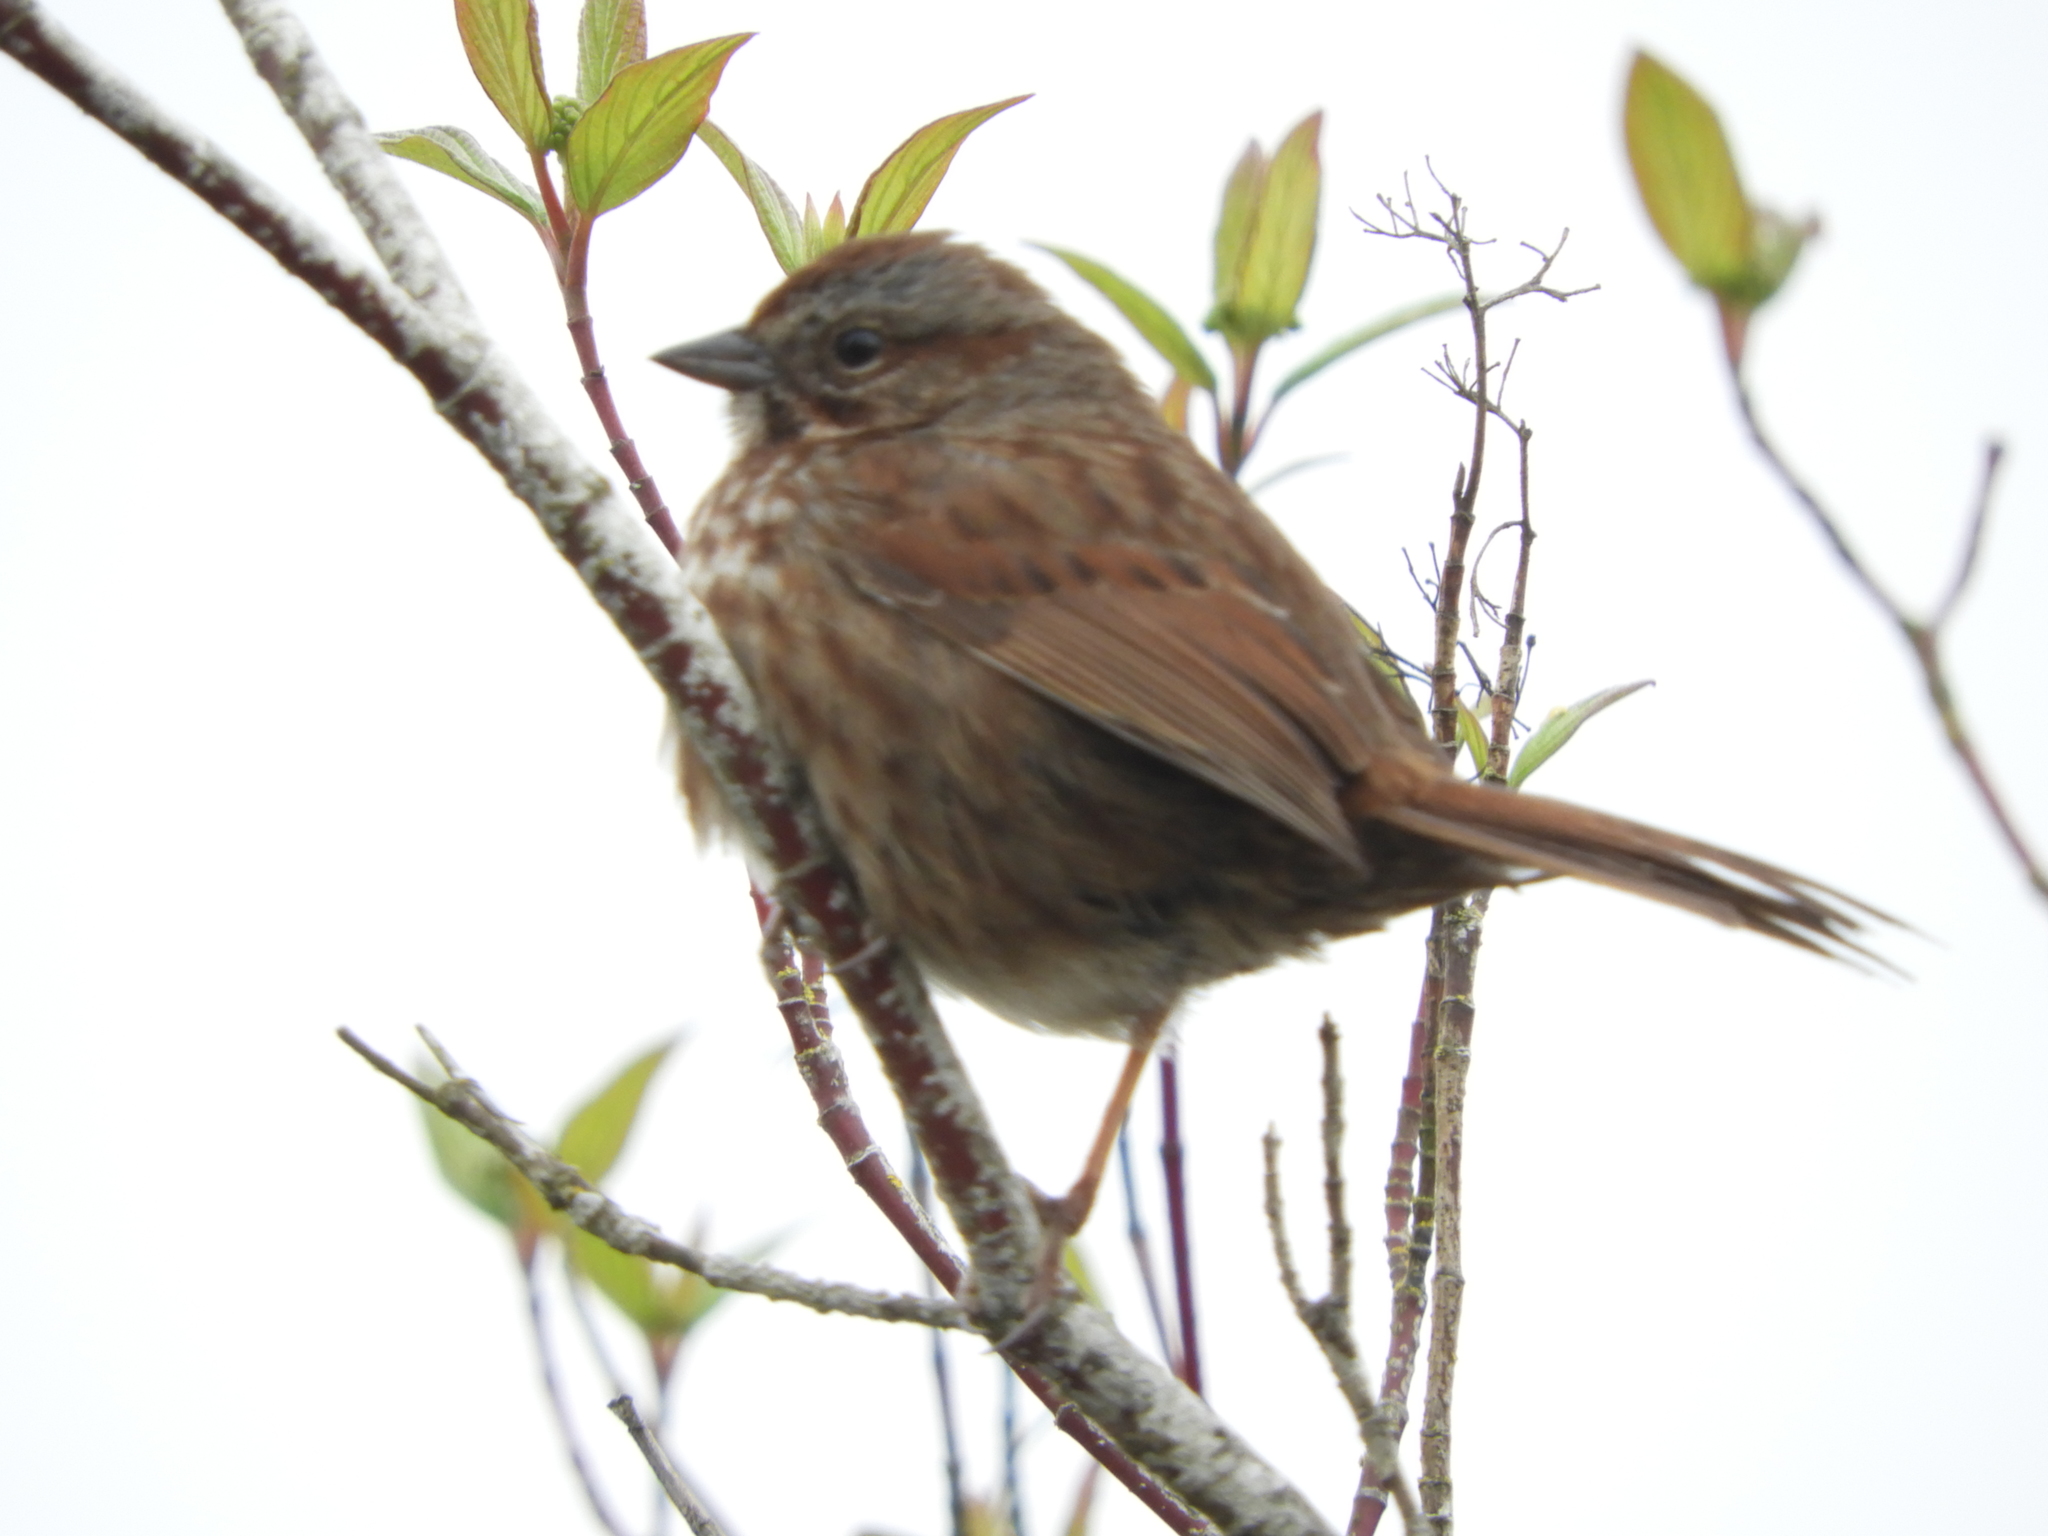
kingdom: Animalia
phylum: Chordata
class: Aves
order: Passeriformes
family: Passerellidae
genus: Melospiza
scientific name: Melospiza melodia
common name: Song sparrow
